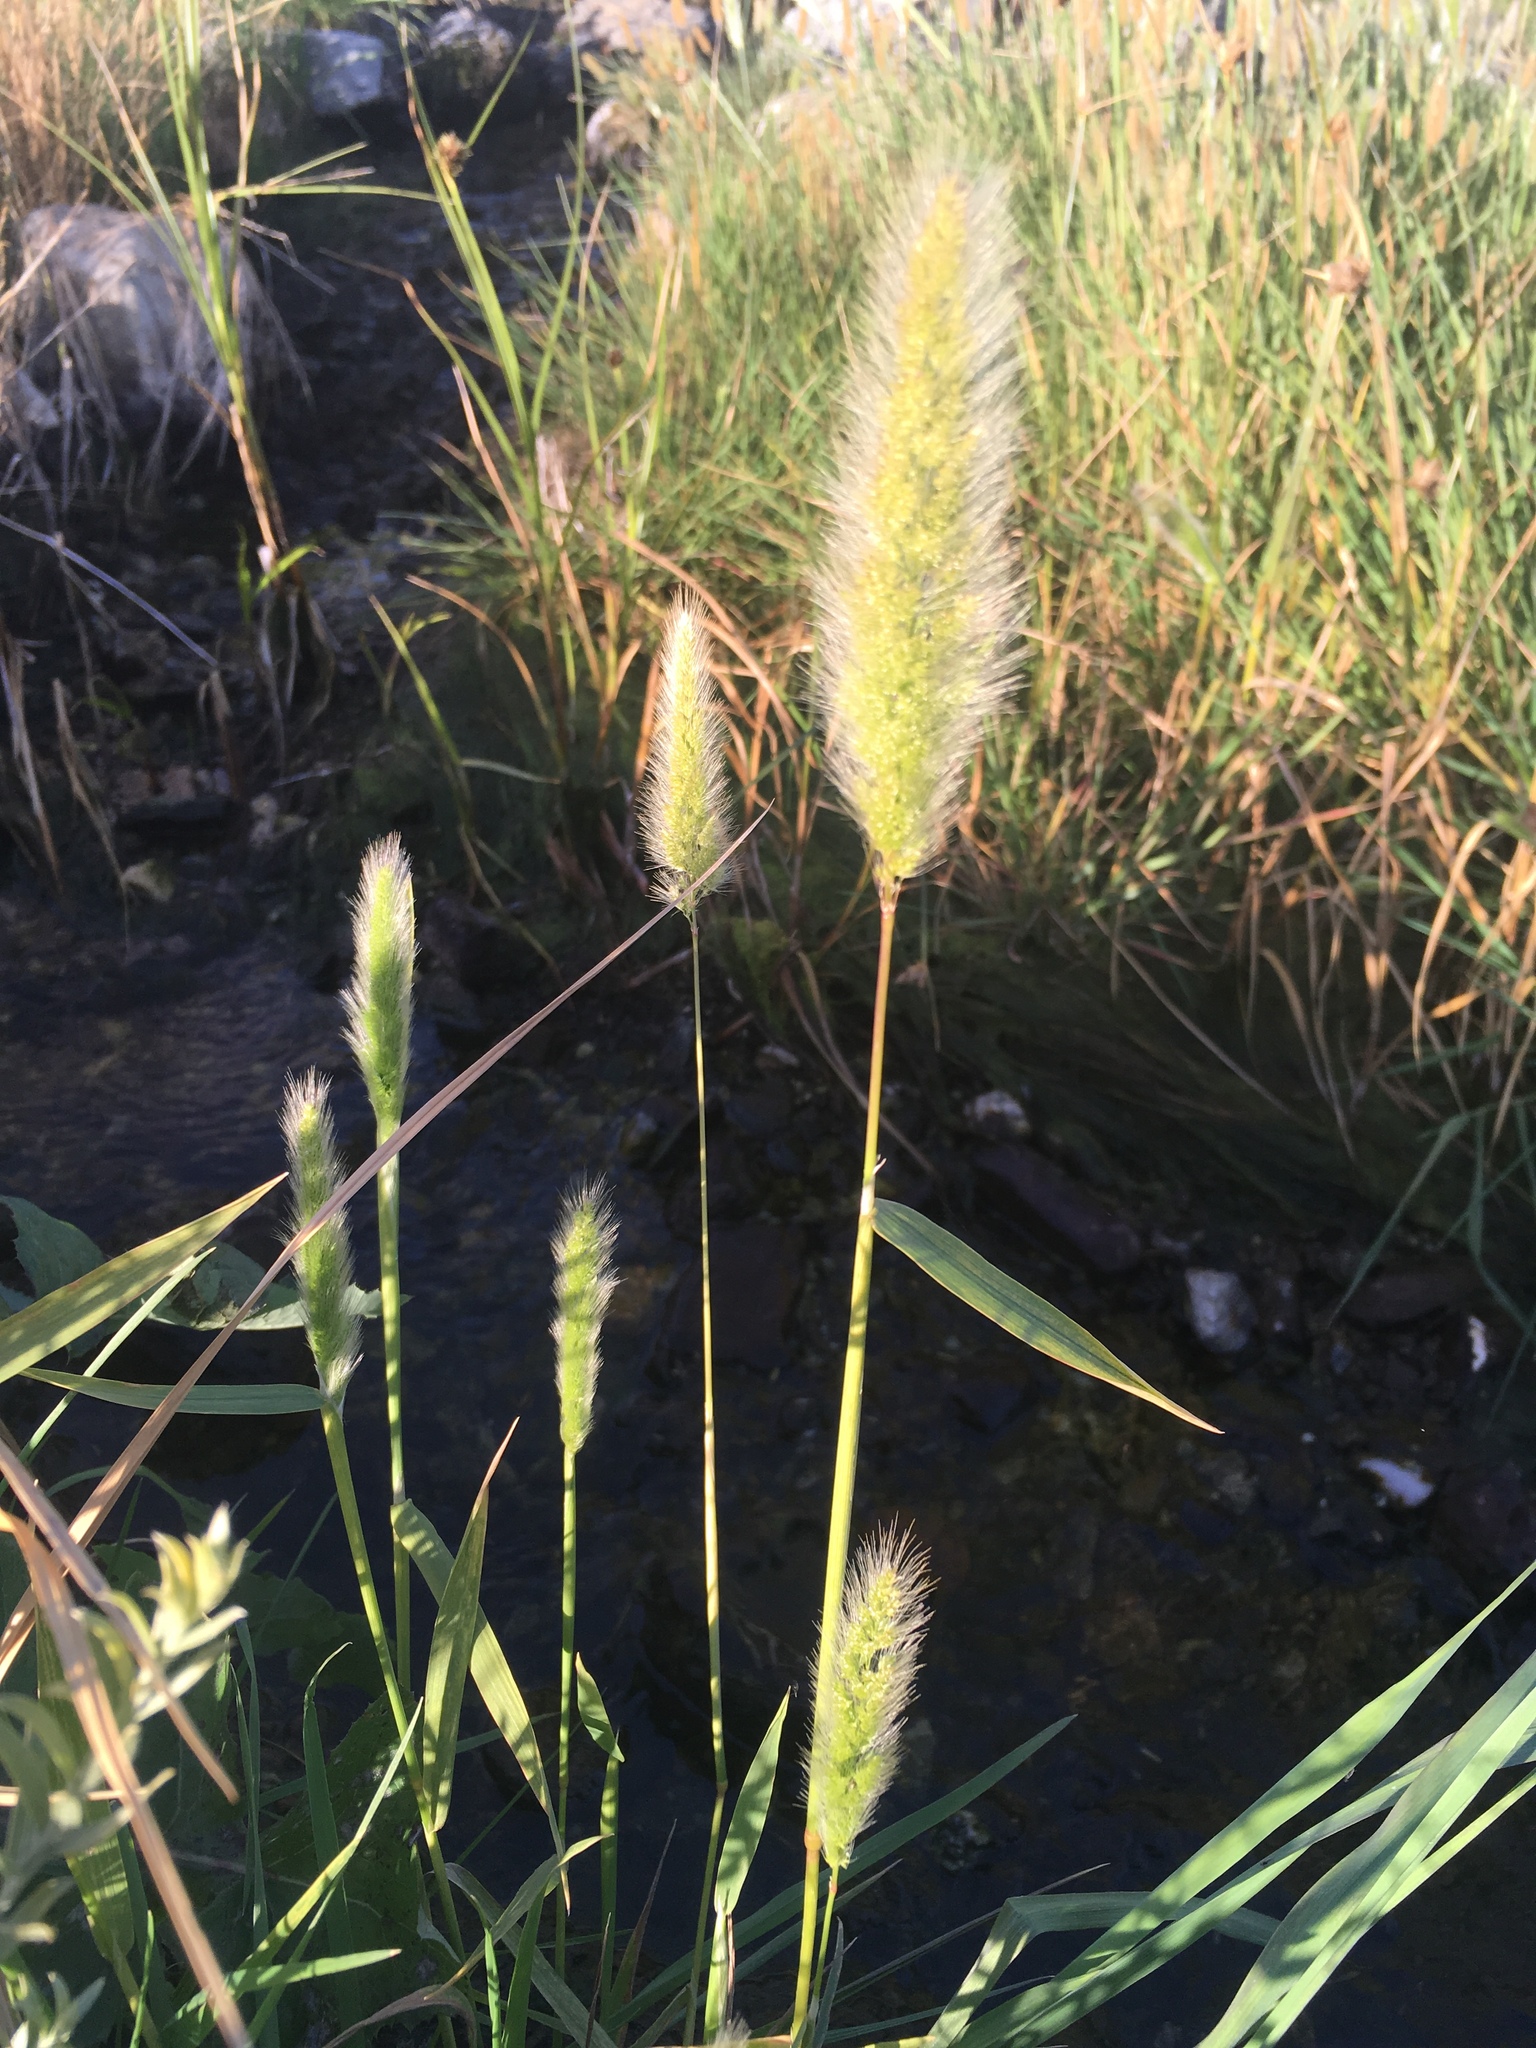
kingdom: Plantae
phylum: Tracheophyta
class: Liliopsida
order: Poales
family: Poaceae
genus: Polypogon
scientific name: Polypogon monspeliensis
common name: Annual rabbitsfoot grass
